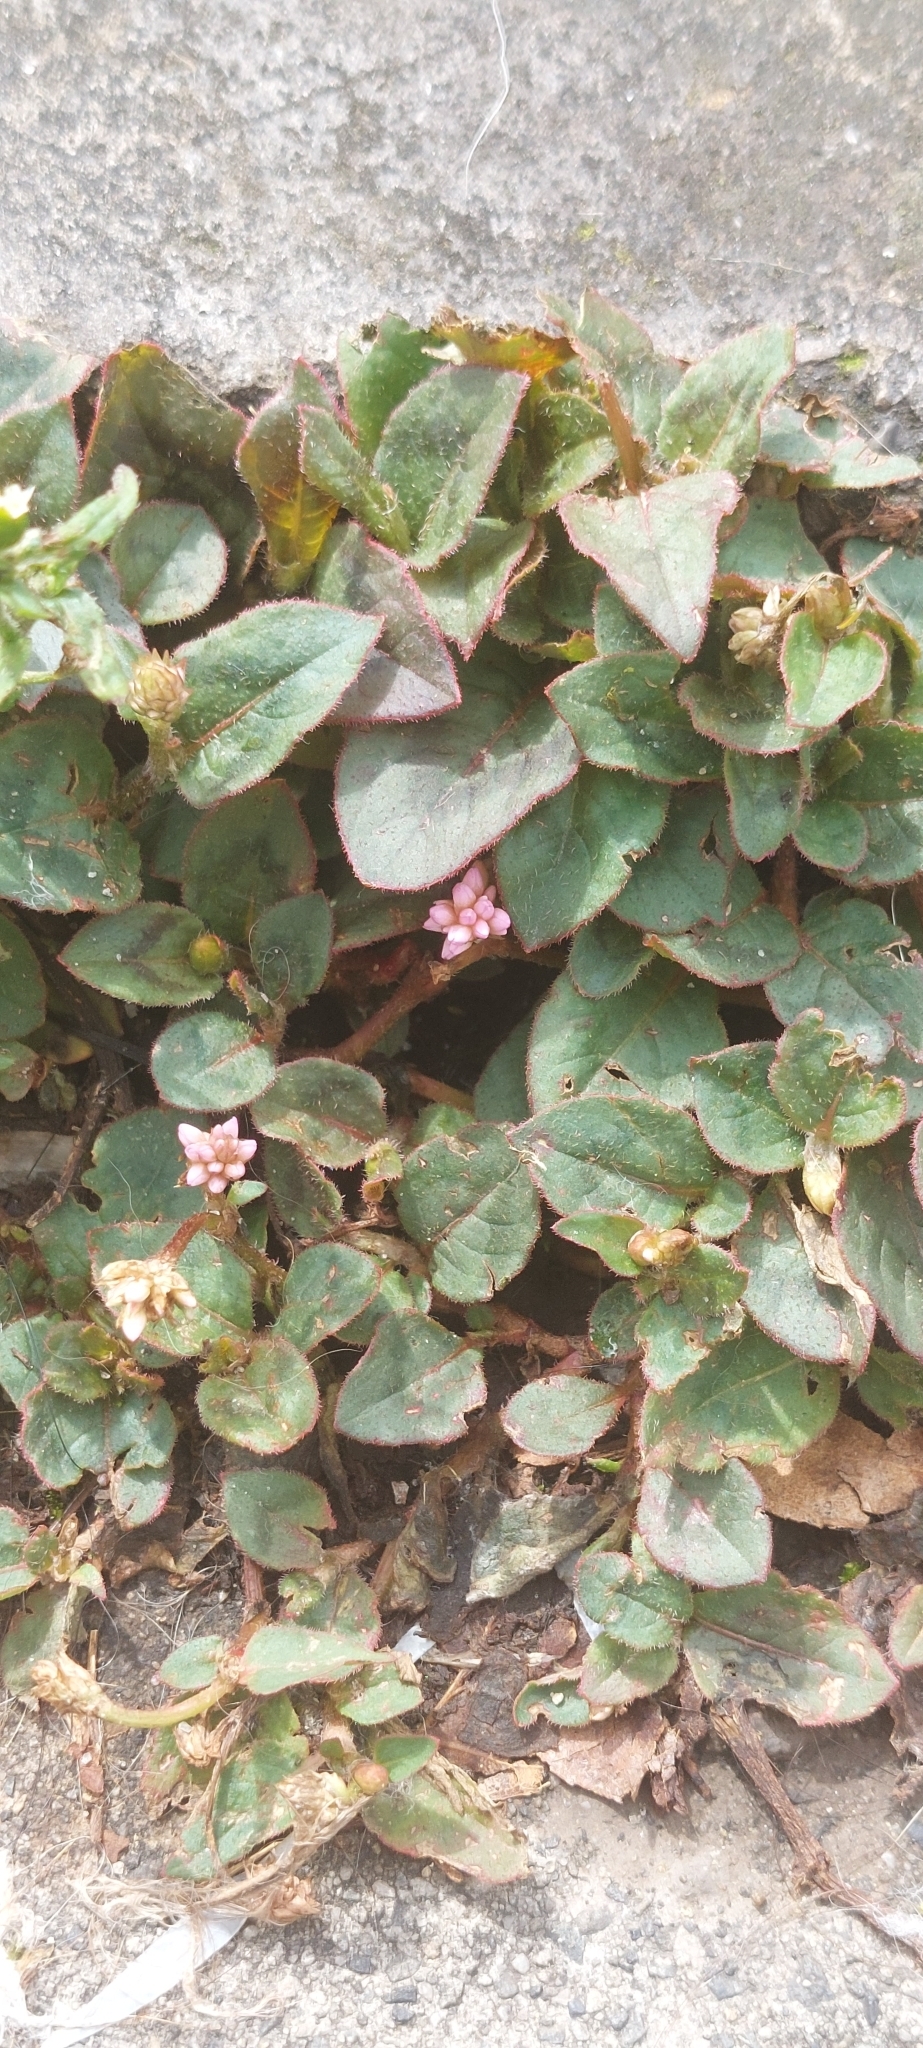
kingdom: Plantae
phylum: Tracheophyta
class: Magnoliopsida
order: Caryophyllales
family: Polygonaceae
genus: Persicaria
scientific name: Persicaria capitata
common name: Pinkhead smartweed
